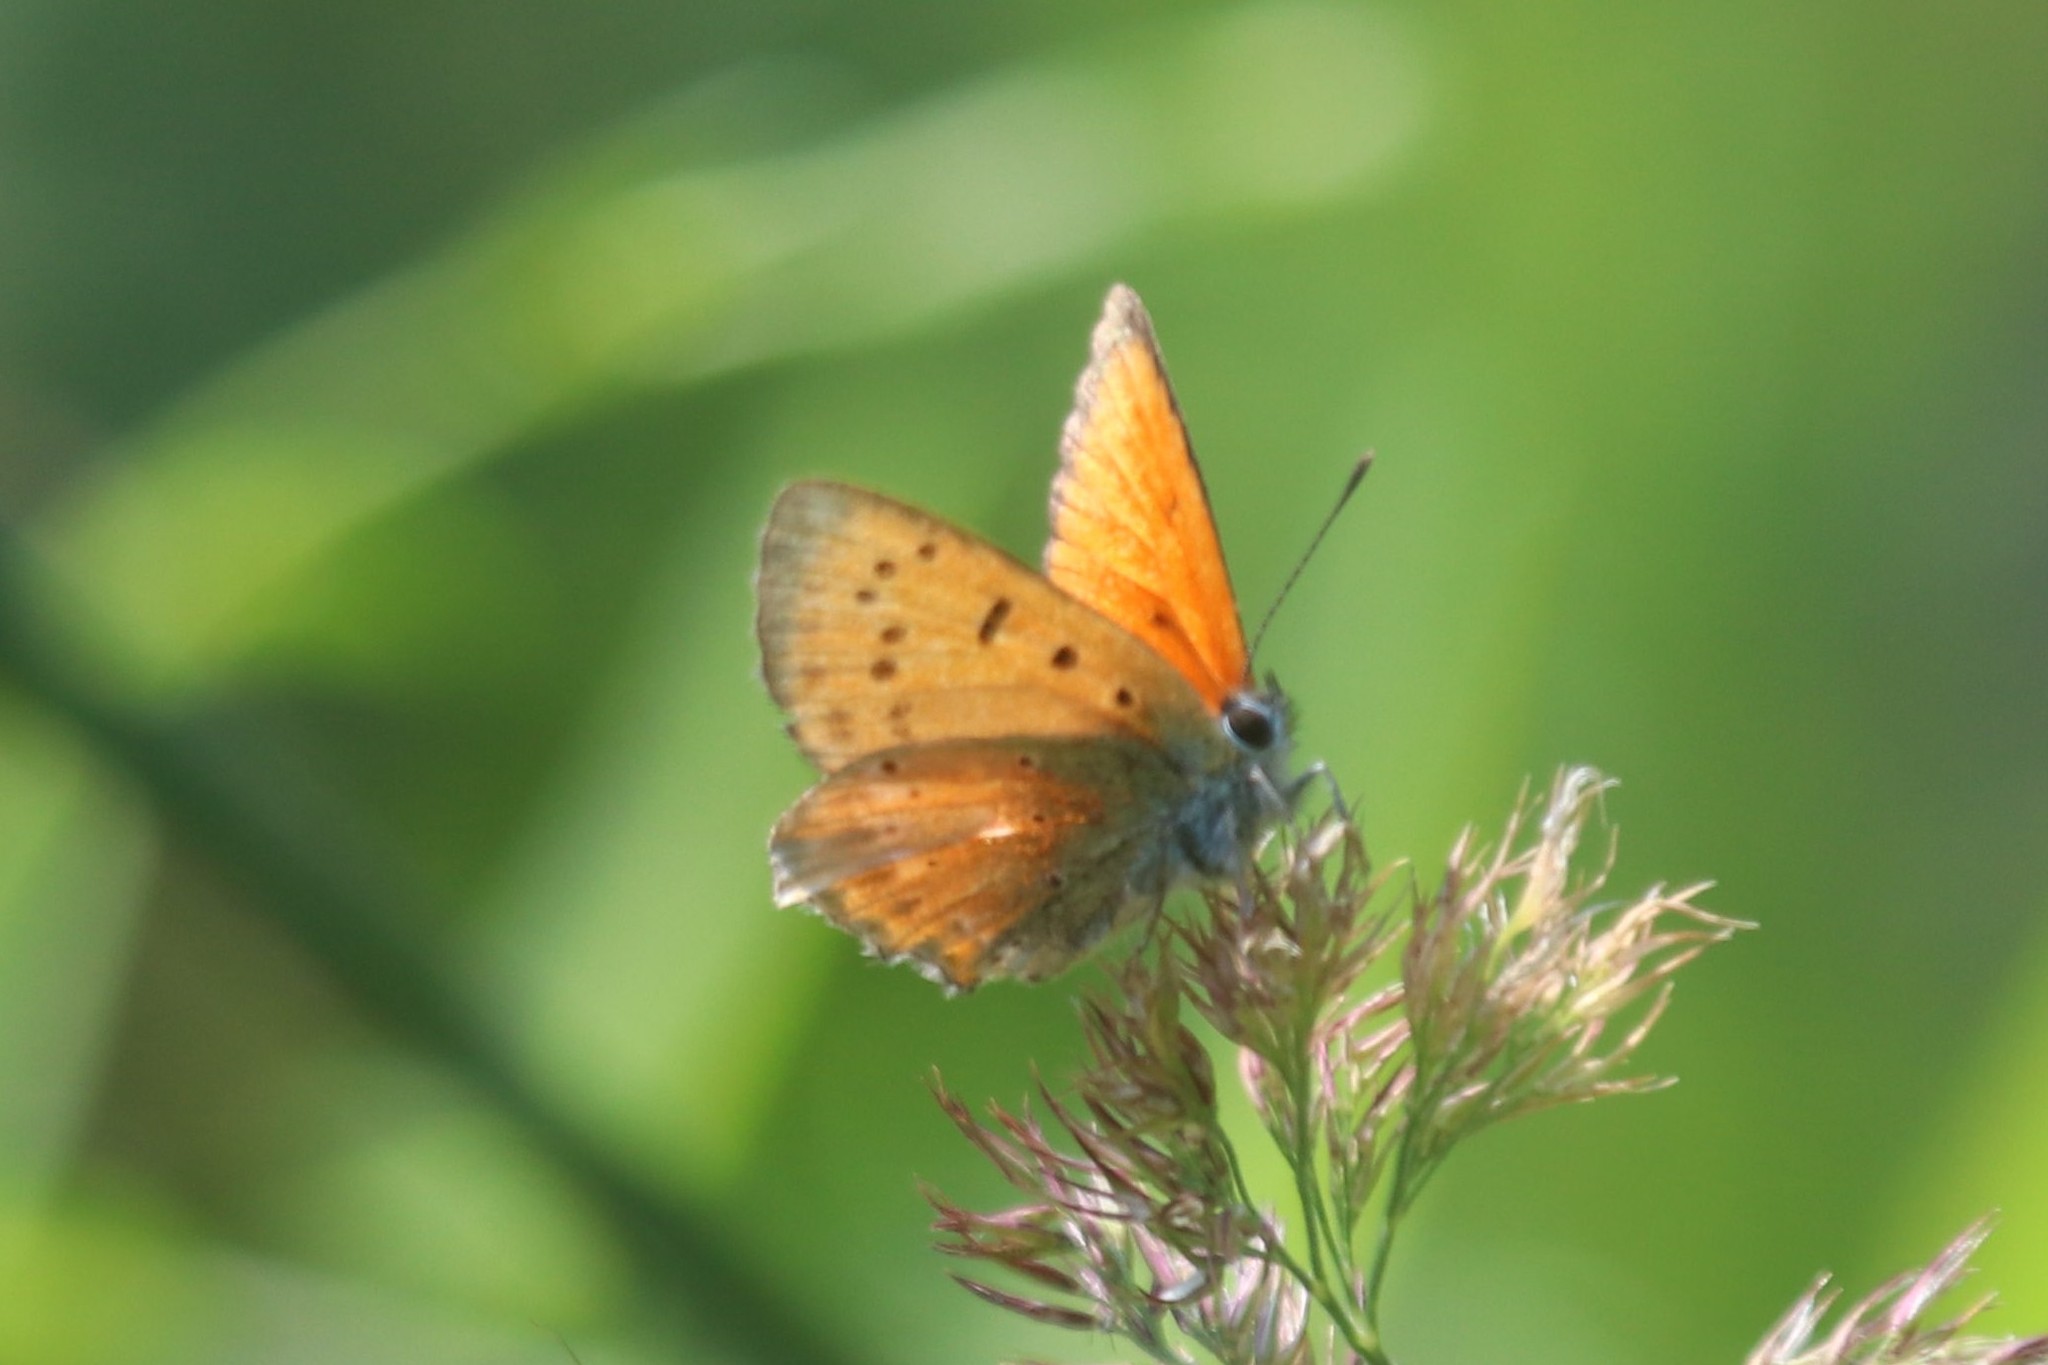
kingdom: Animalia
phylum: Arthropoda
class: Insecta
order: Lepidoptera
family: Lycaenidae
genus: Lycaena
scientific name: Lycaena virgaureae
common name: Scarce copper
